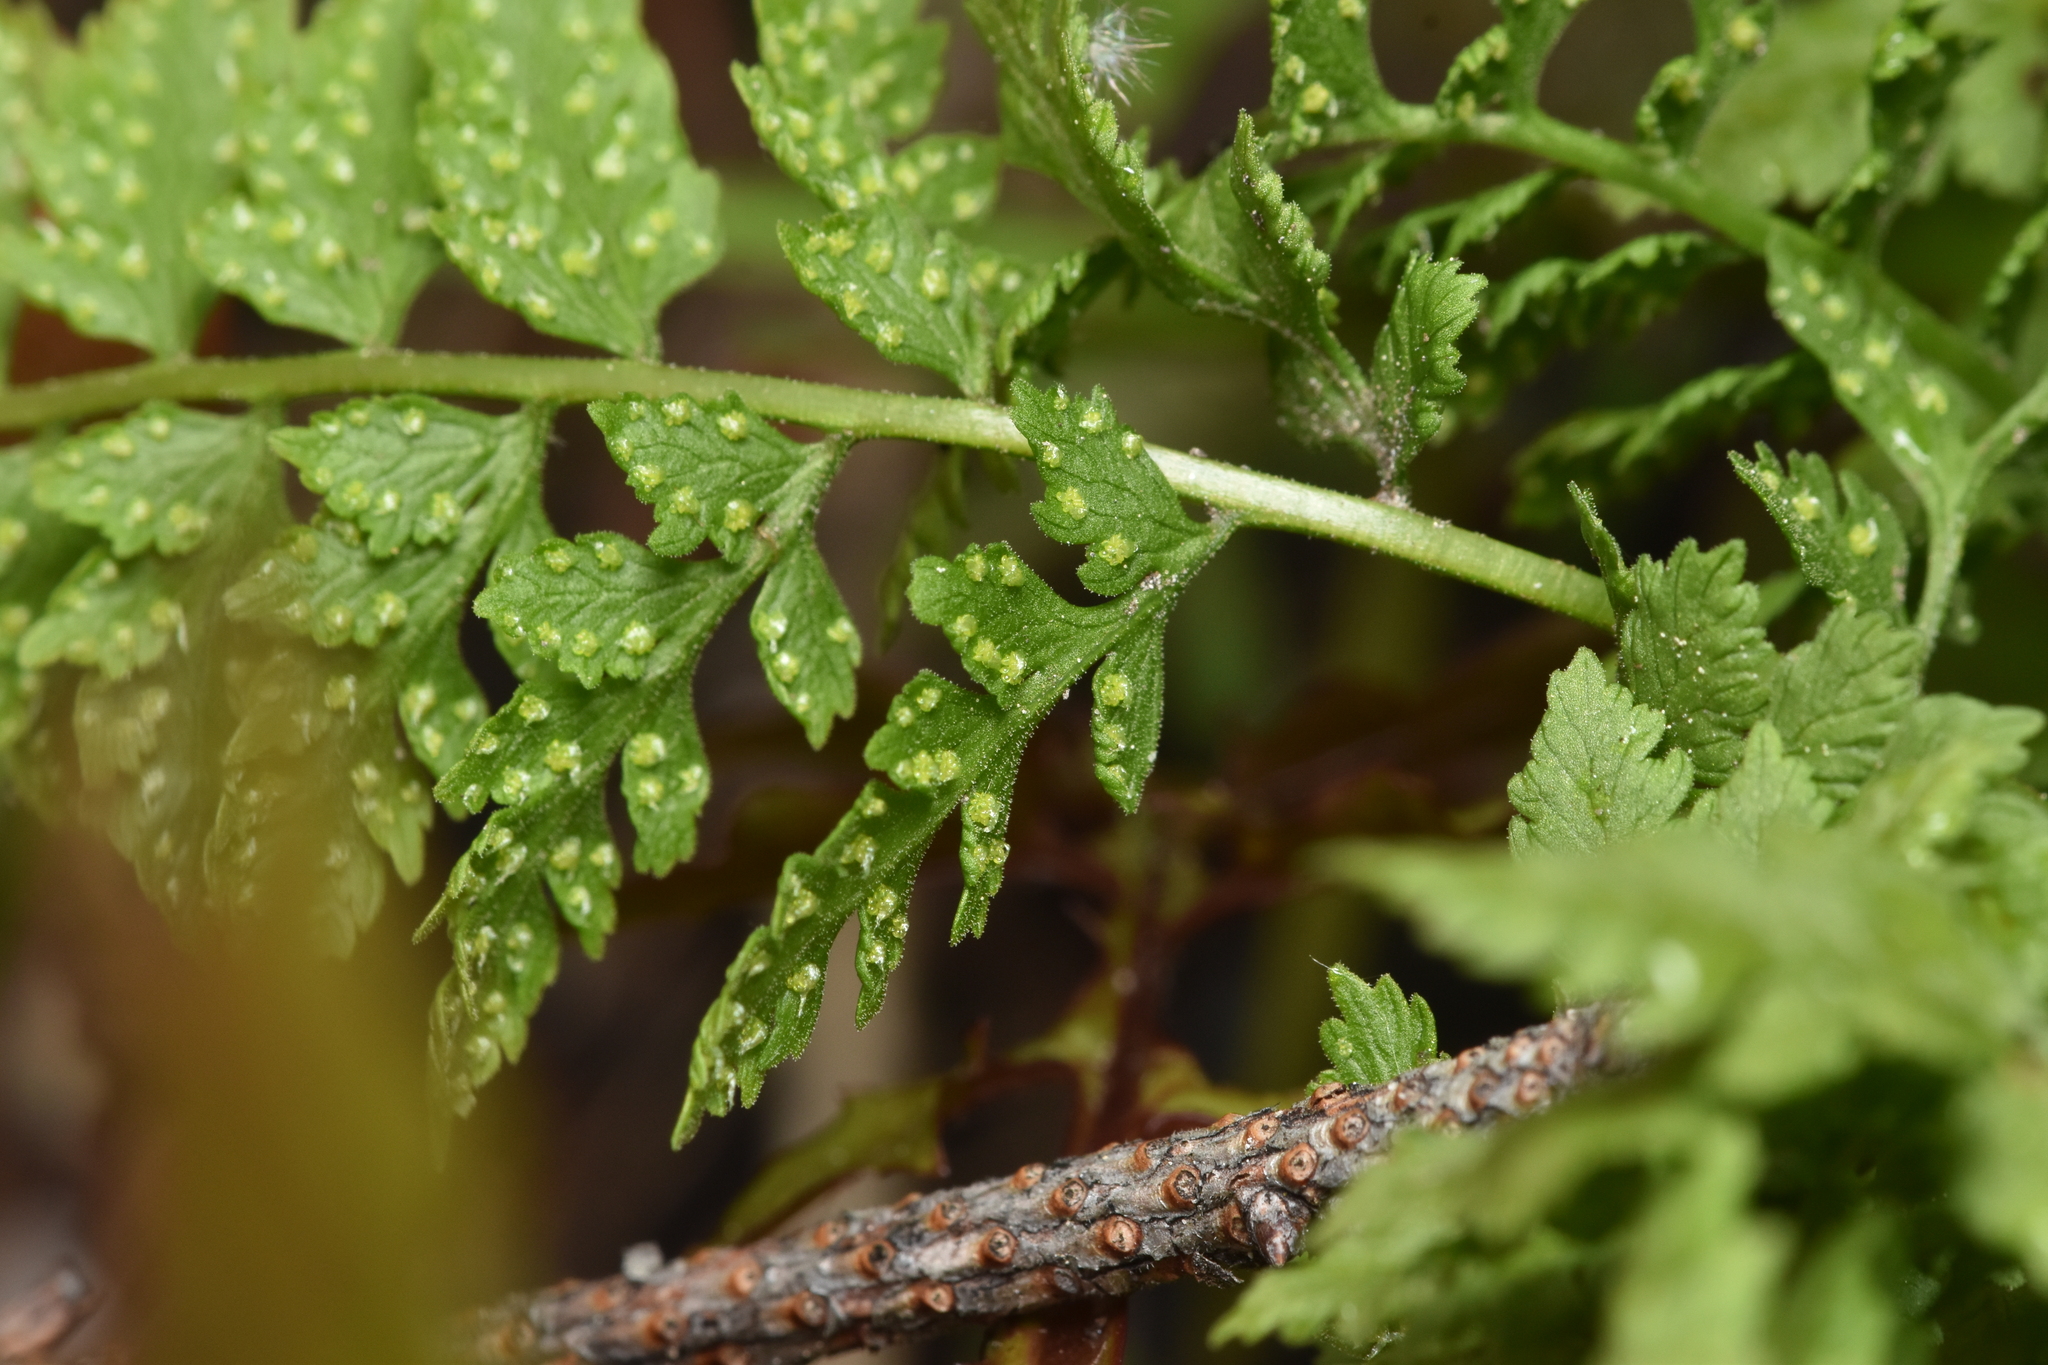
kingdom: Plantae
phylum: Tracheophyta
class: Polypodiopsida
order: Polypodiales
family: Cystopteridaceae
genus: Cystopteris
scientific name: Cystopteris fragilis
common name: Brittle bladder fern
